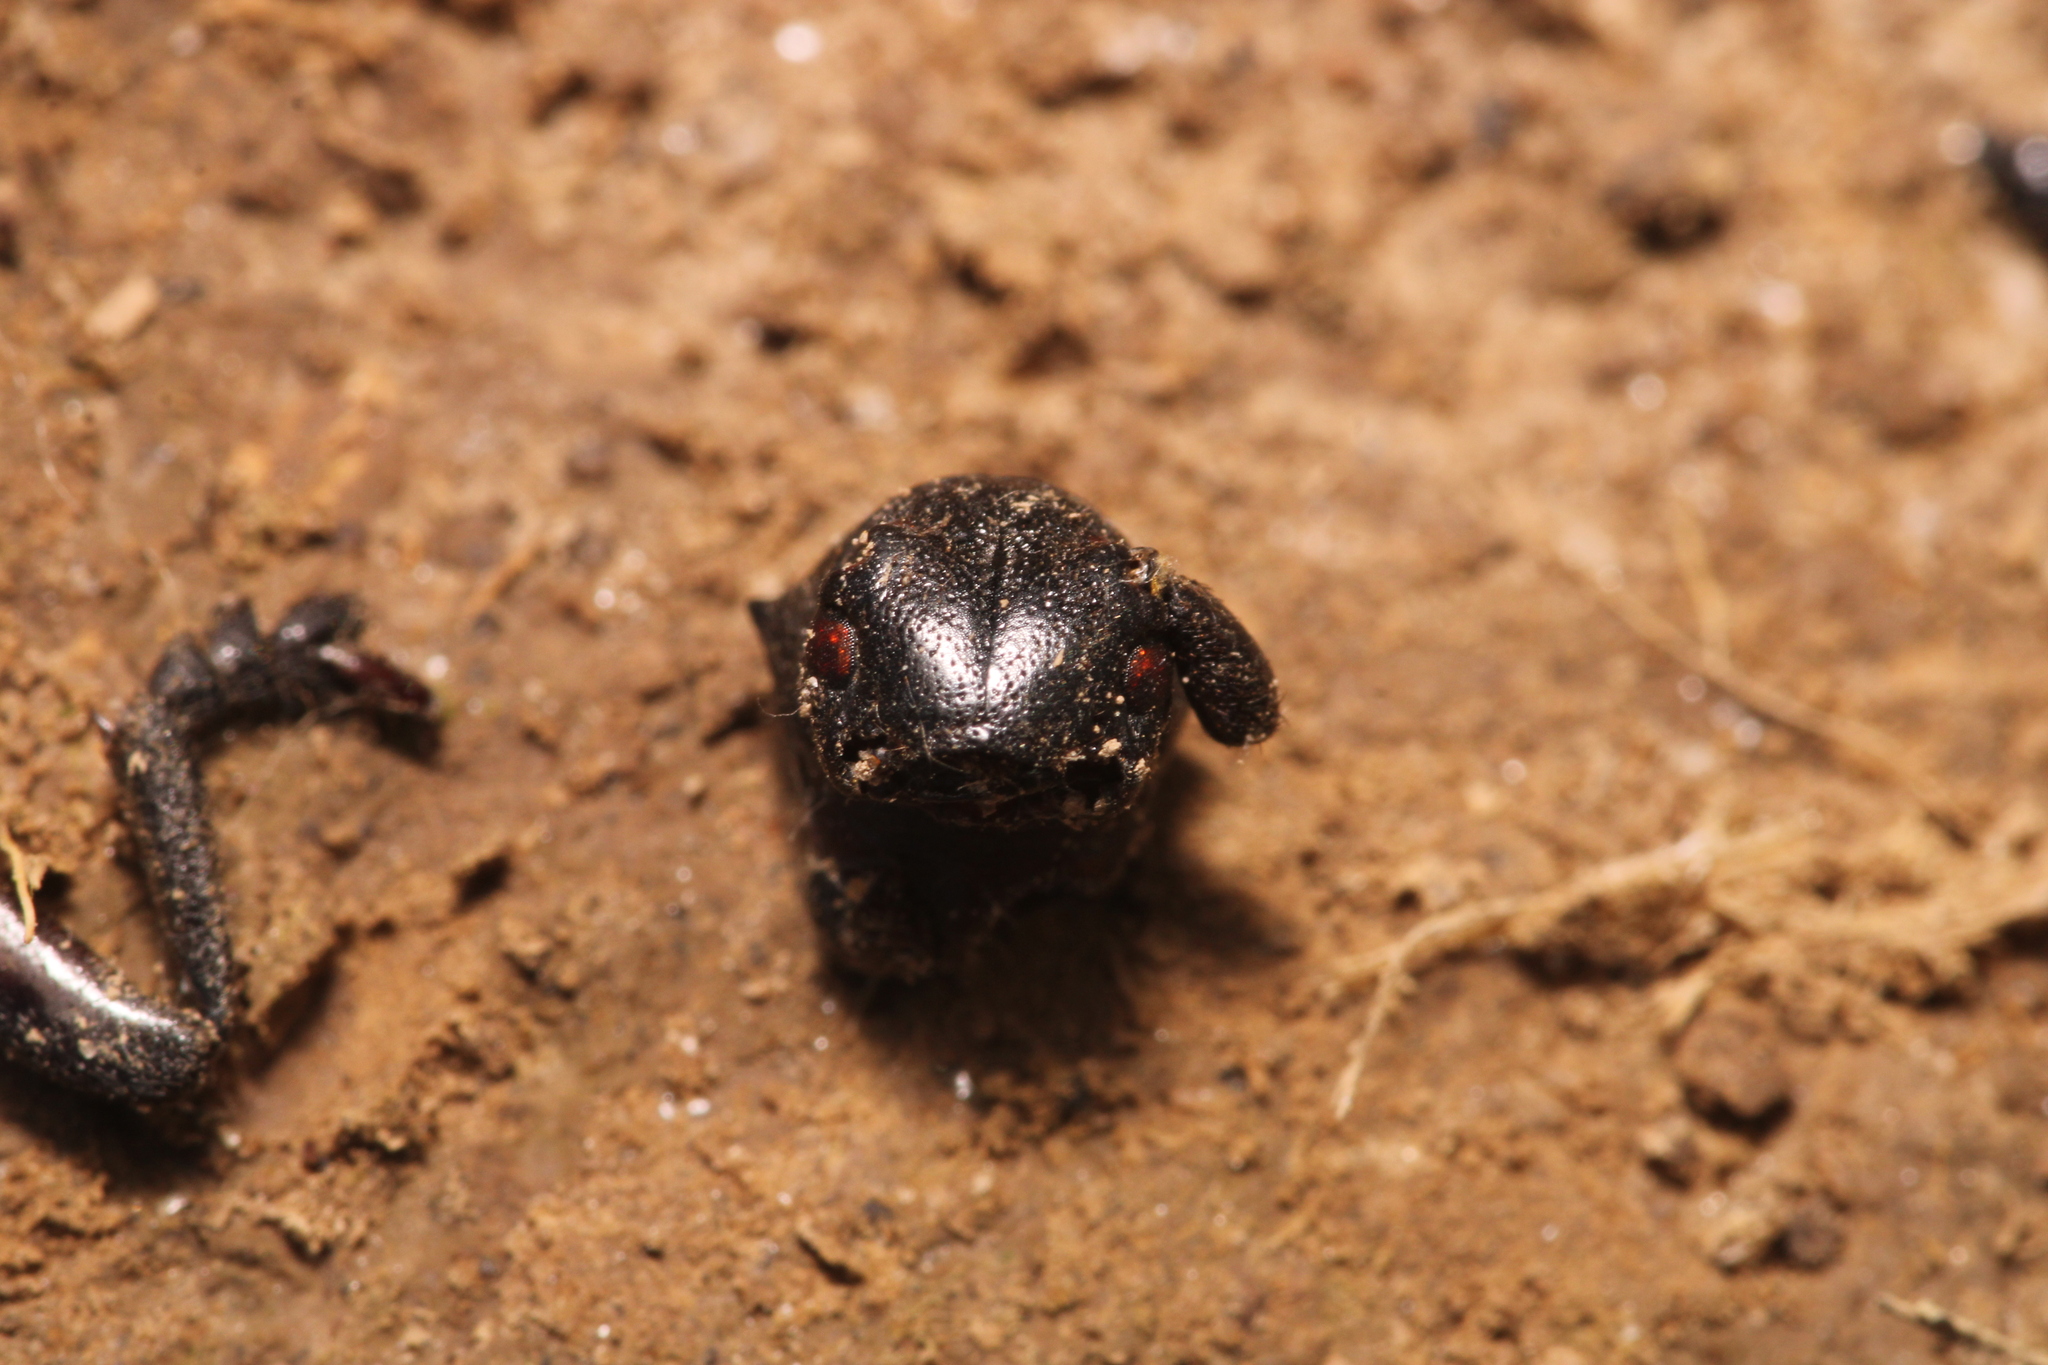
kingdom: Animalia
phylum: Arthropoda
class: Insecta
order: Coleoptera
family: Cerambycidae
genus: Dorcadion
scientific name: Dorcadion aethiops
